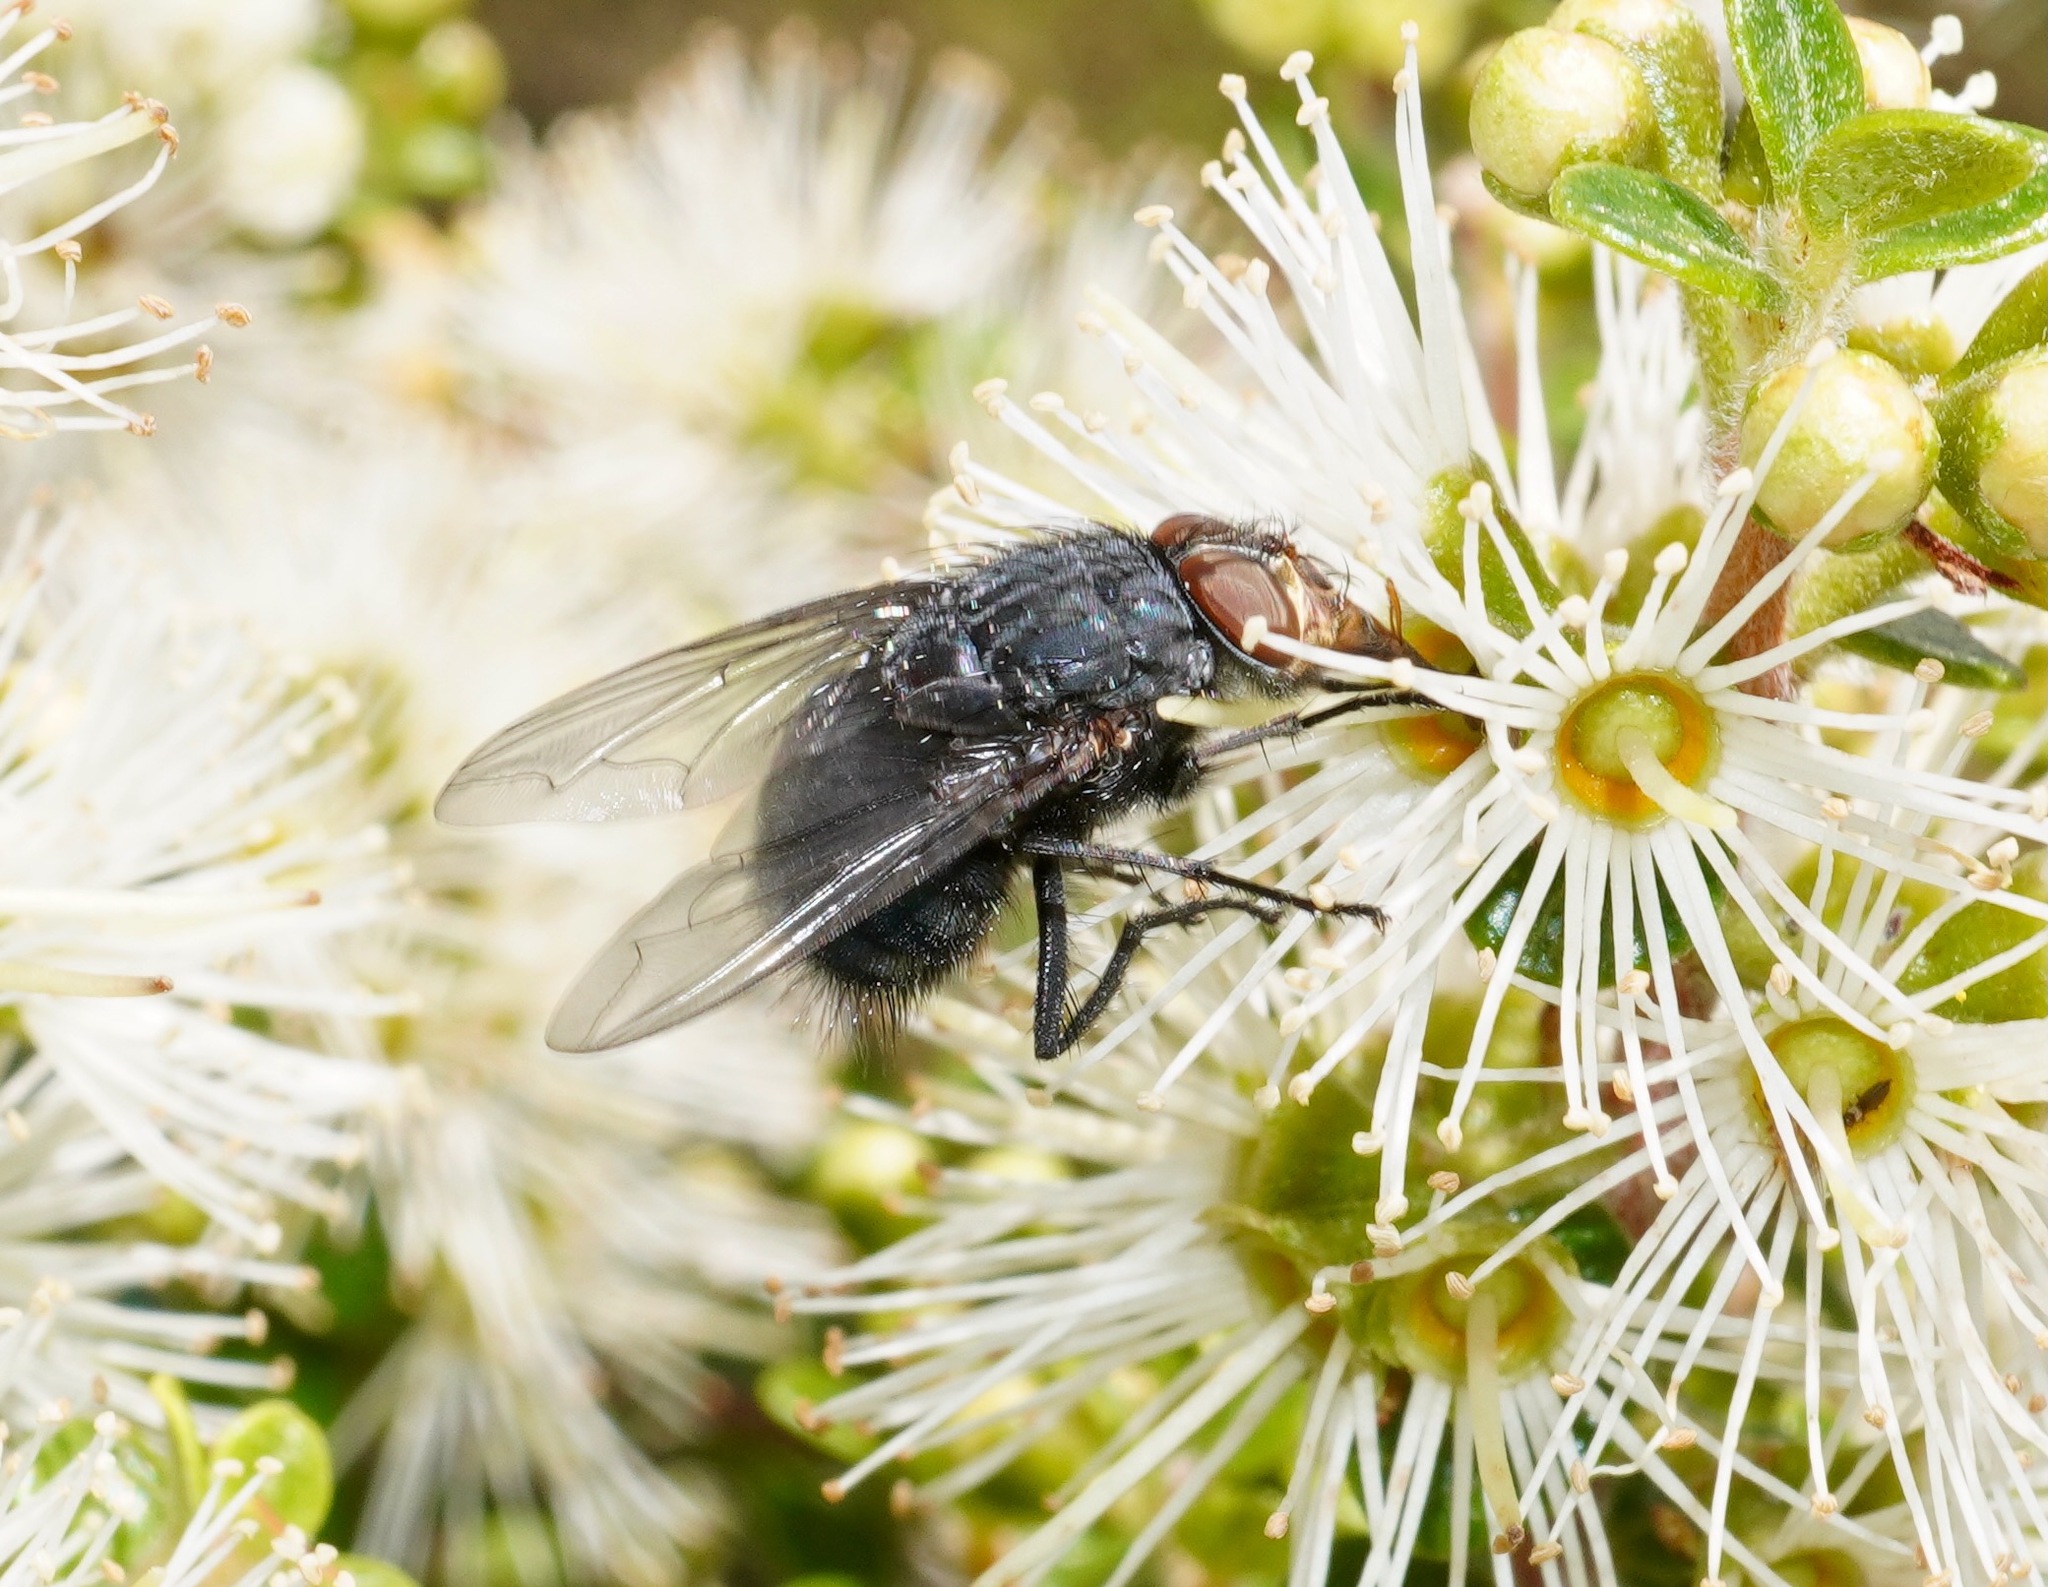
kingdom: Animalia
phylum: Arthropoda
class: Insecta
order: Diptera
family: Calliphoridae
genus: Calliphora
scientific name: Calliphora vicina
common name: Common blow flie
